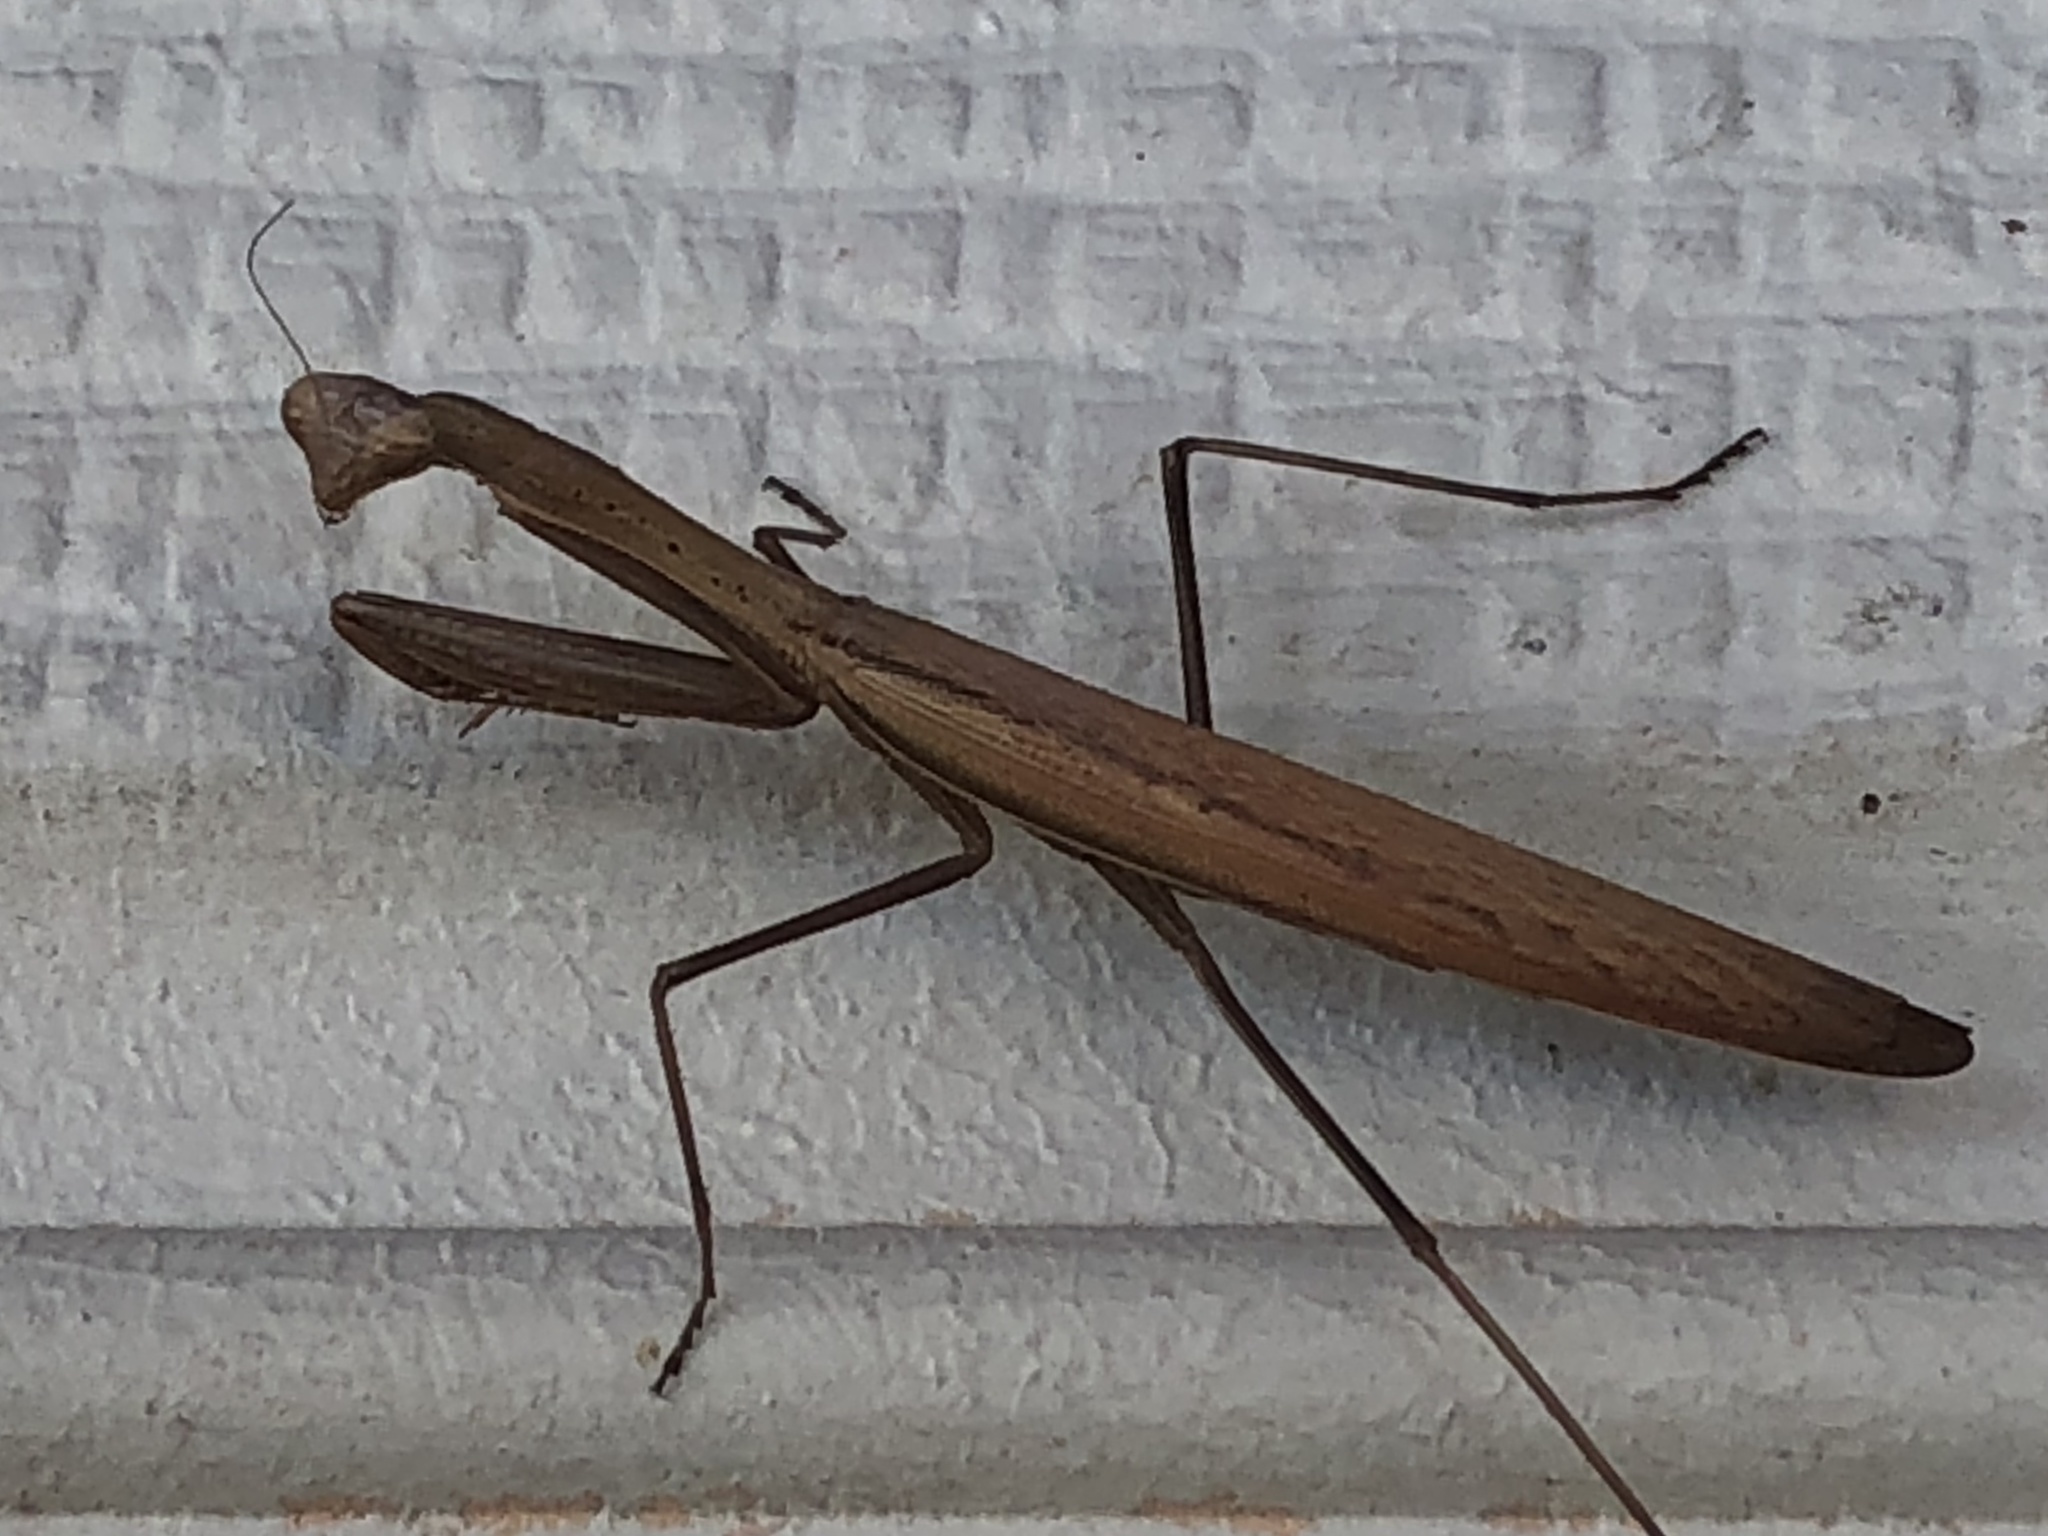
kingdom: Animalia
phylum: Arthropoda
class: Insecta
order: Mantodea
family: Mantidae
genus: Statilia
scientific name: Statilia apicalis
